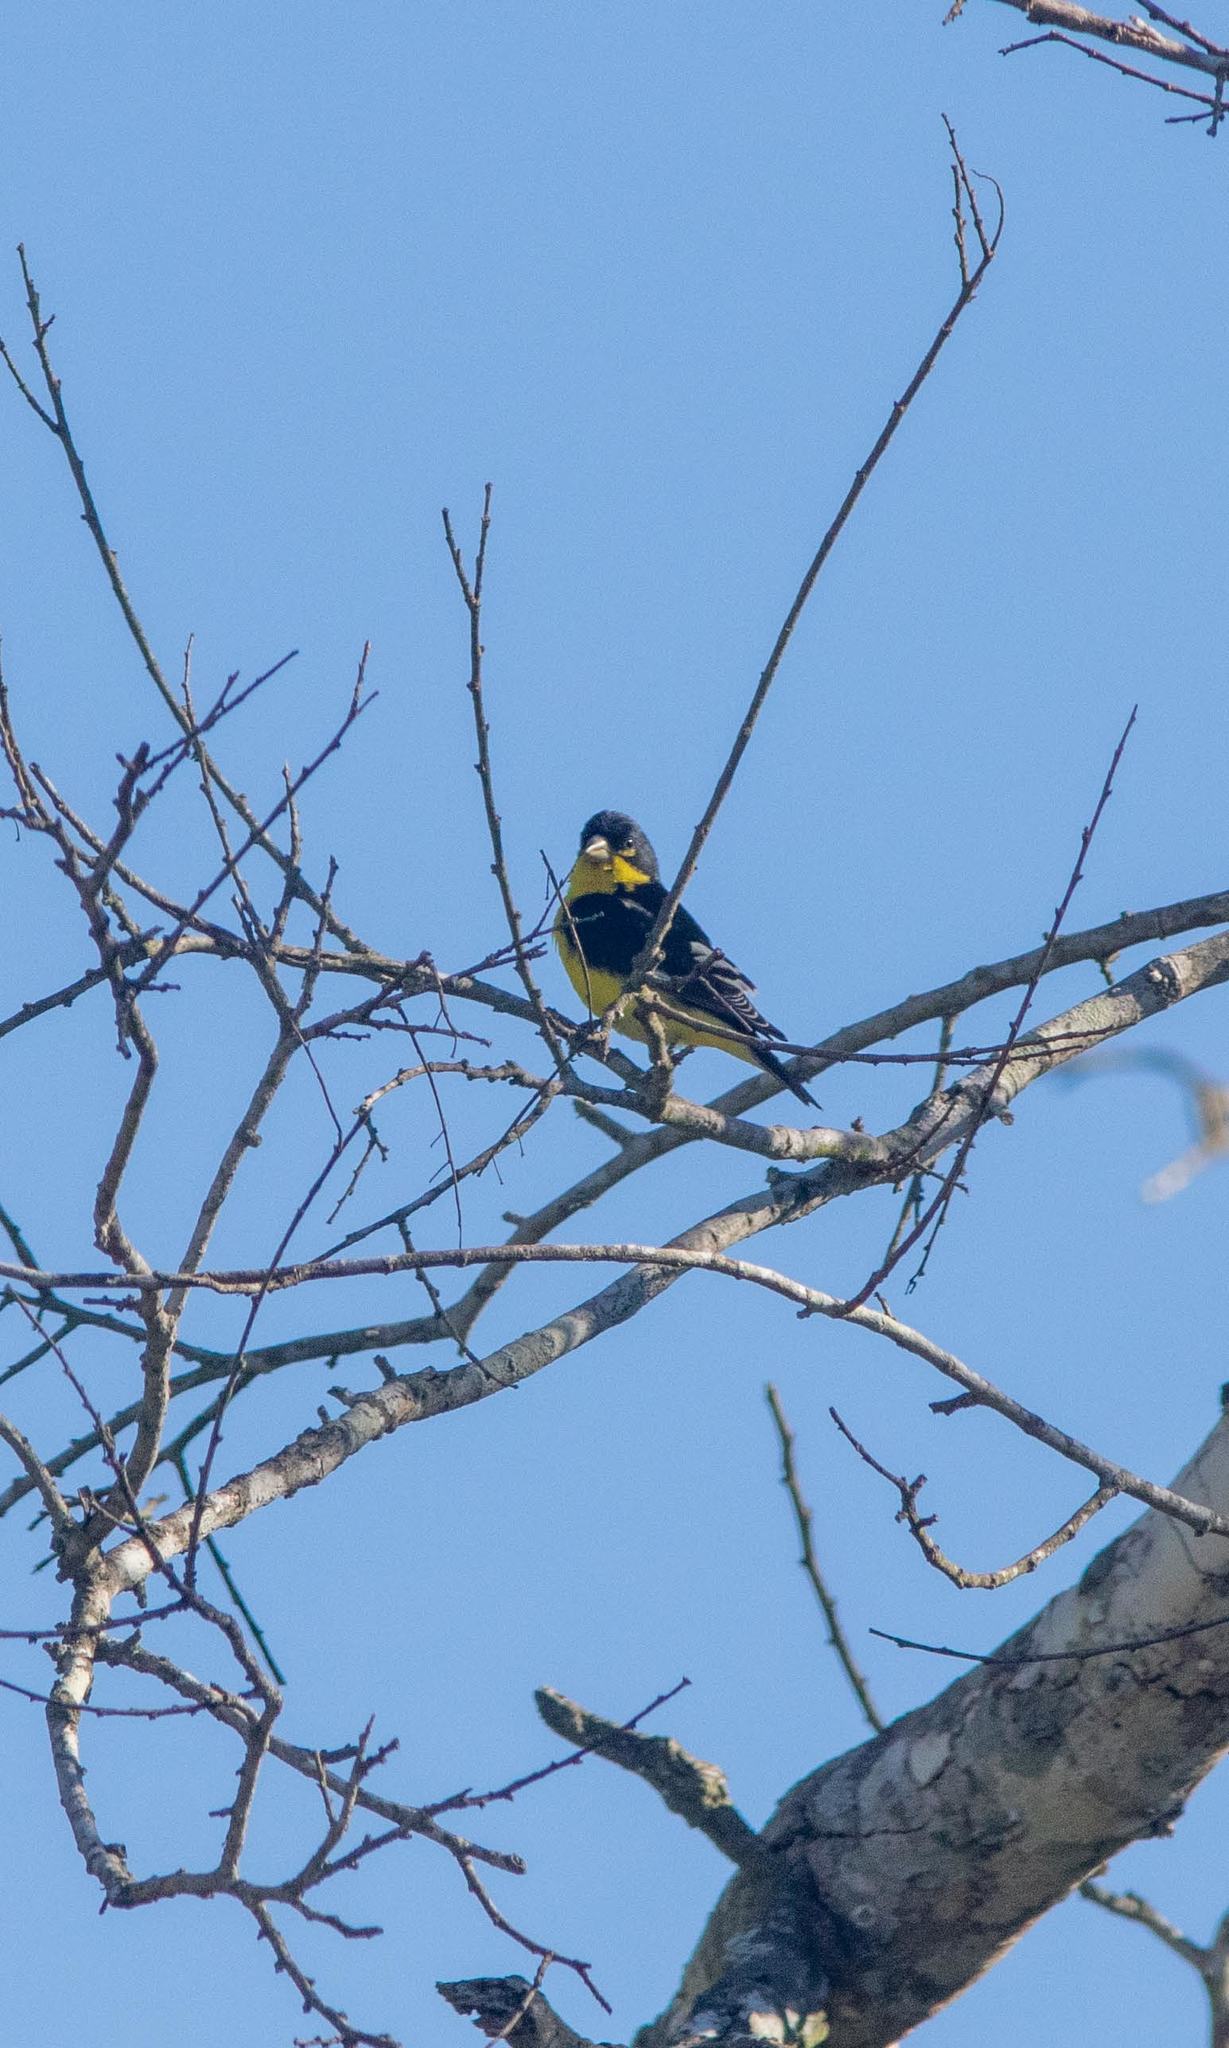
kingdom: Animalia
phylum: Chordata
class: Aves
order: Passeriformes
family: Fringillidae
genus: Spinus
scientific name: Spinus psaltria
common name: Lesser goldfinch
